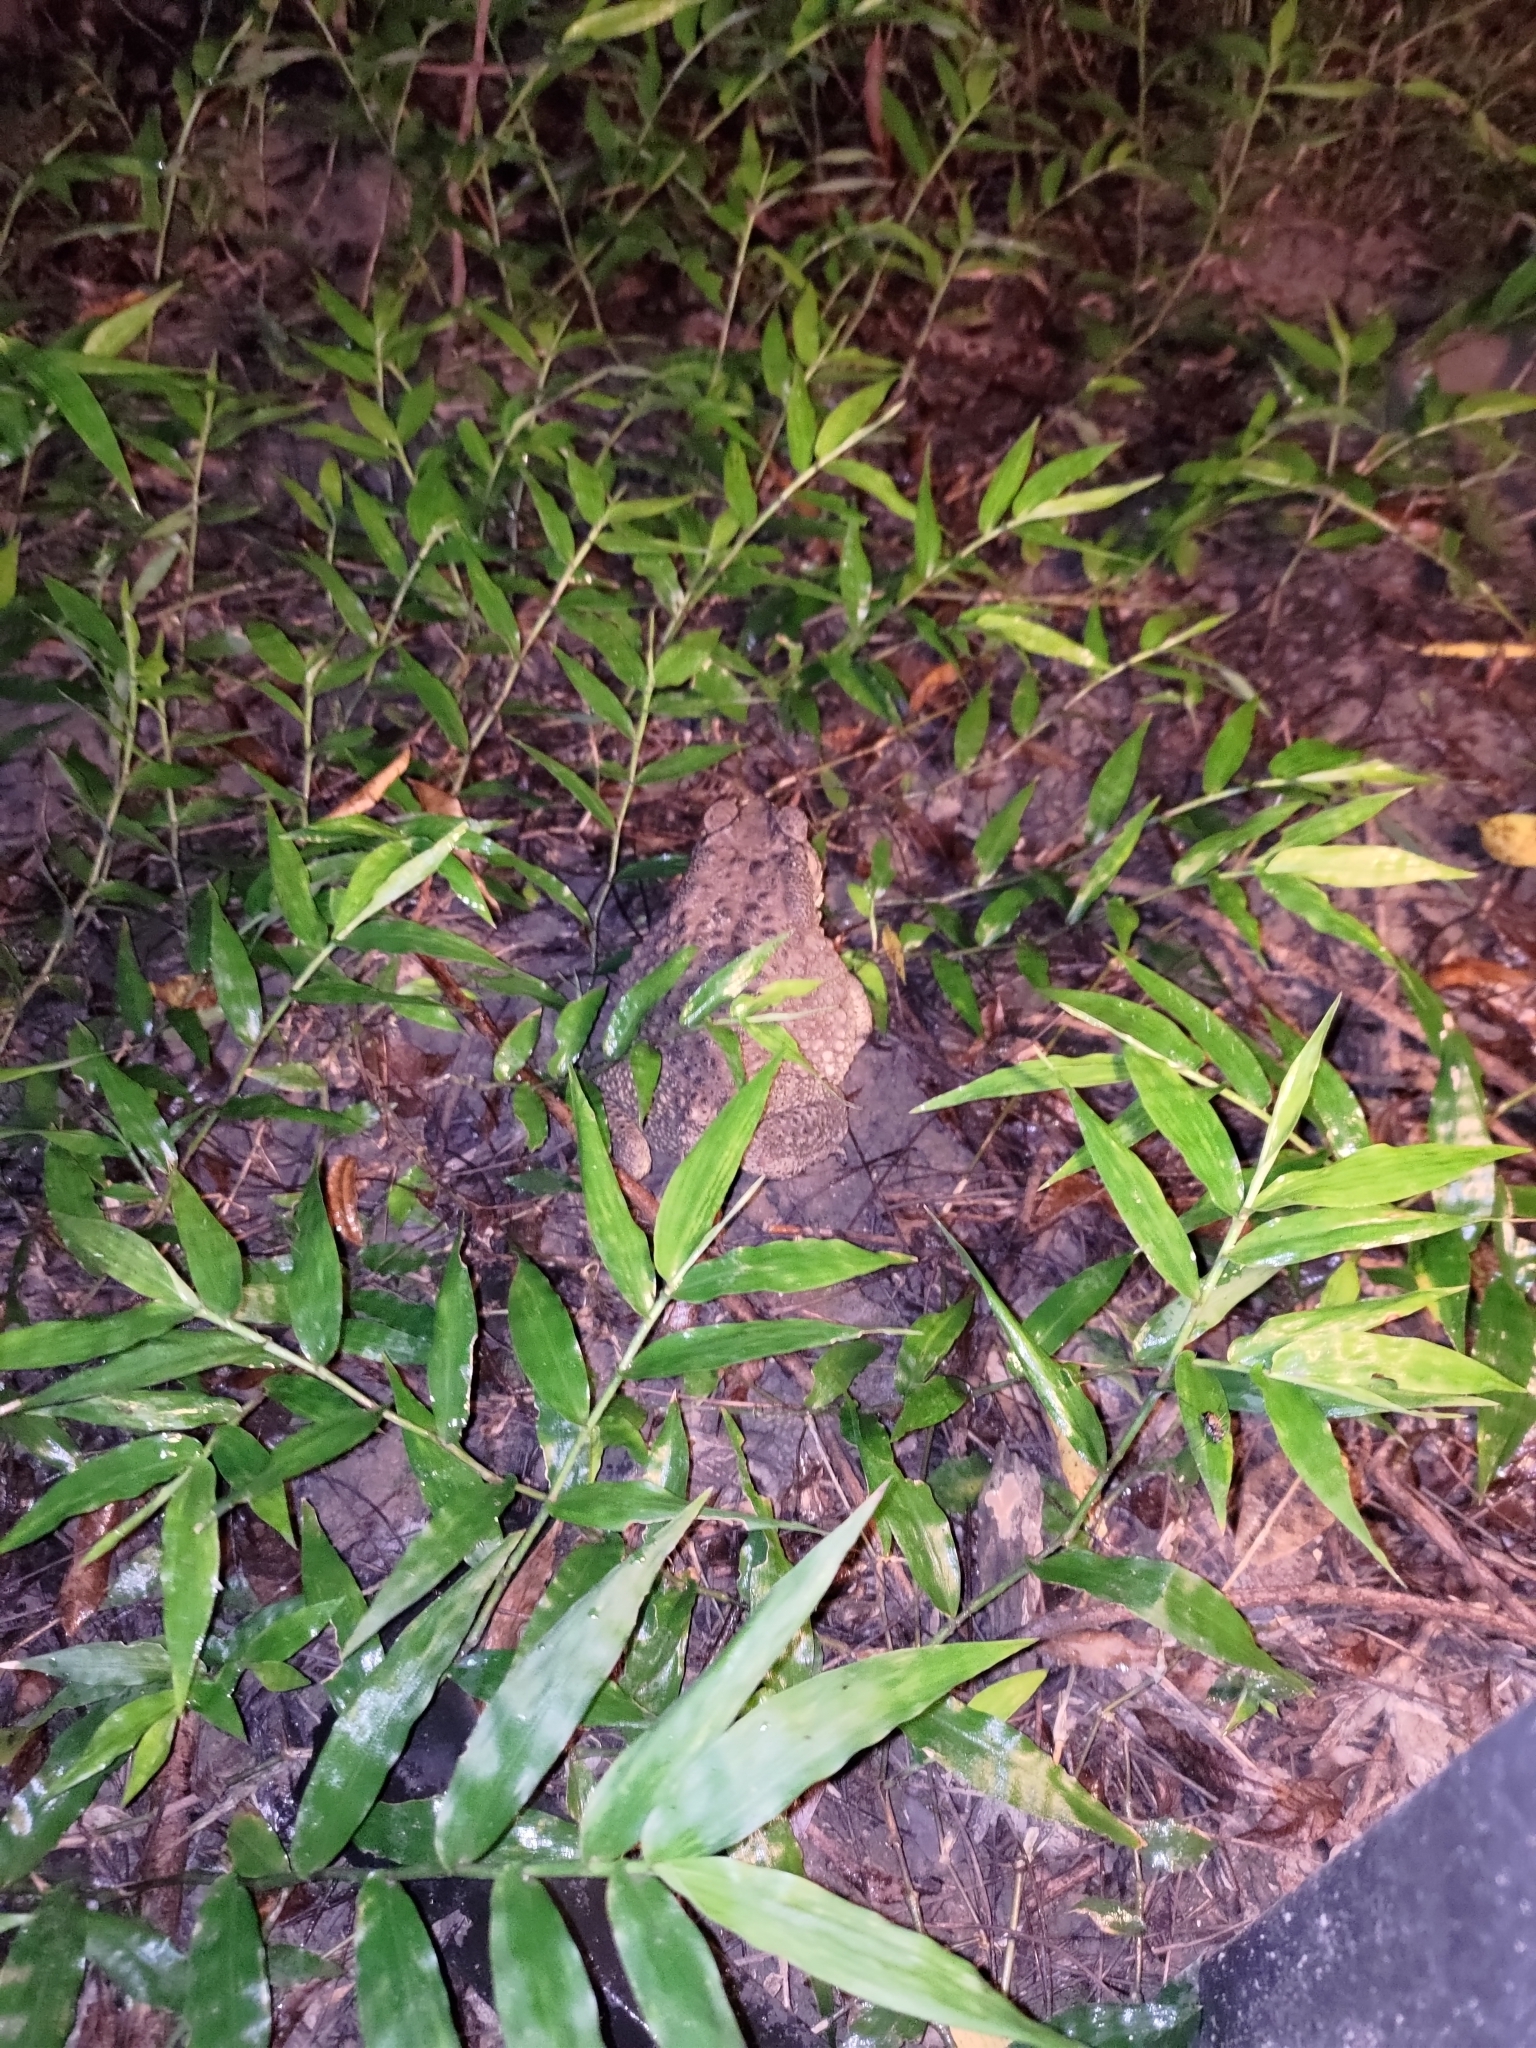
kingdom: Animalia
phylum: Chordata
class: Amphibia
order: Anura
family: Bufonidae
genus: Duttaphrynus
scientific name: Duttaphrynus melanostictus
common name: Common sunda toad
